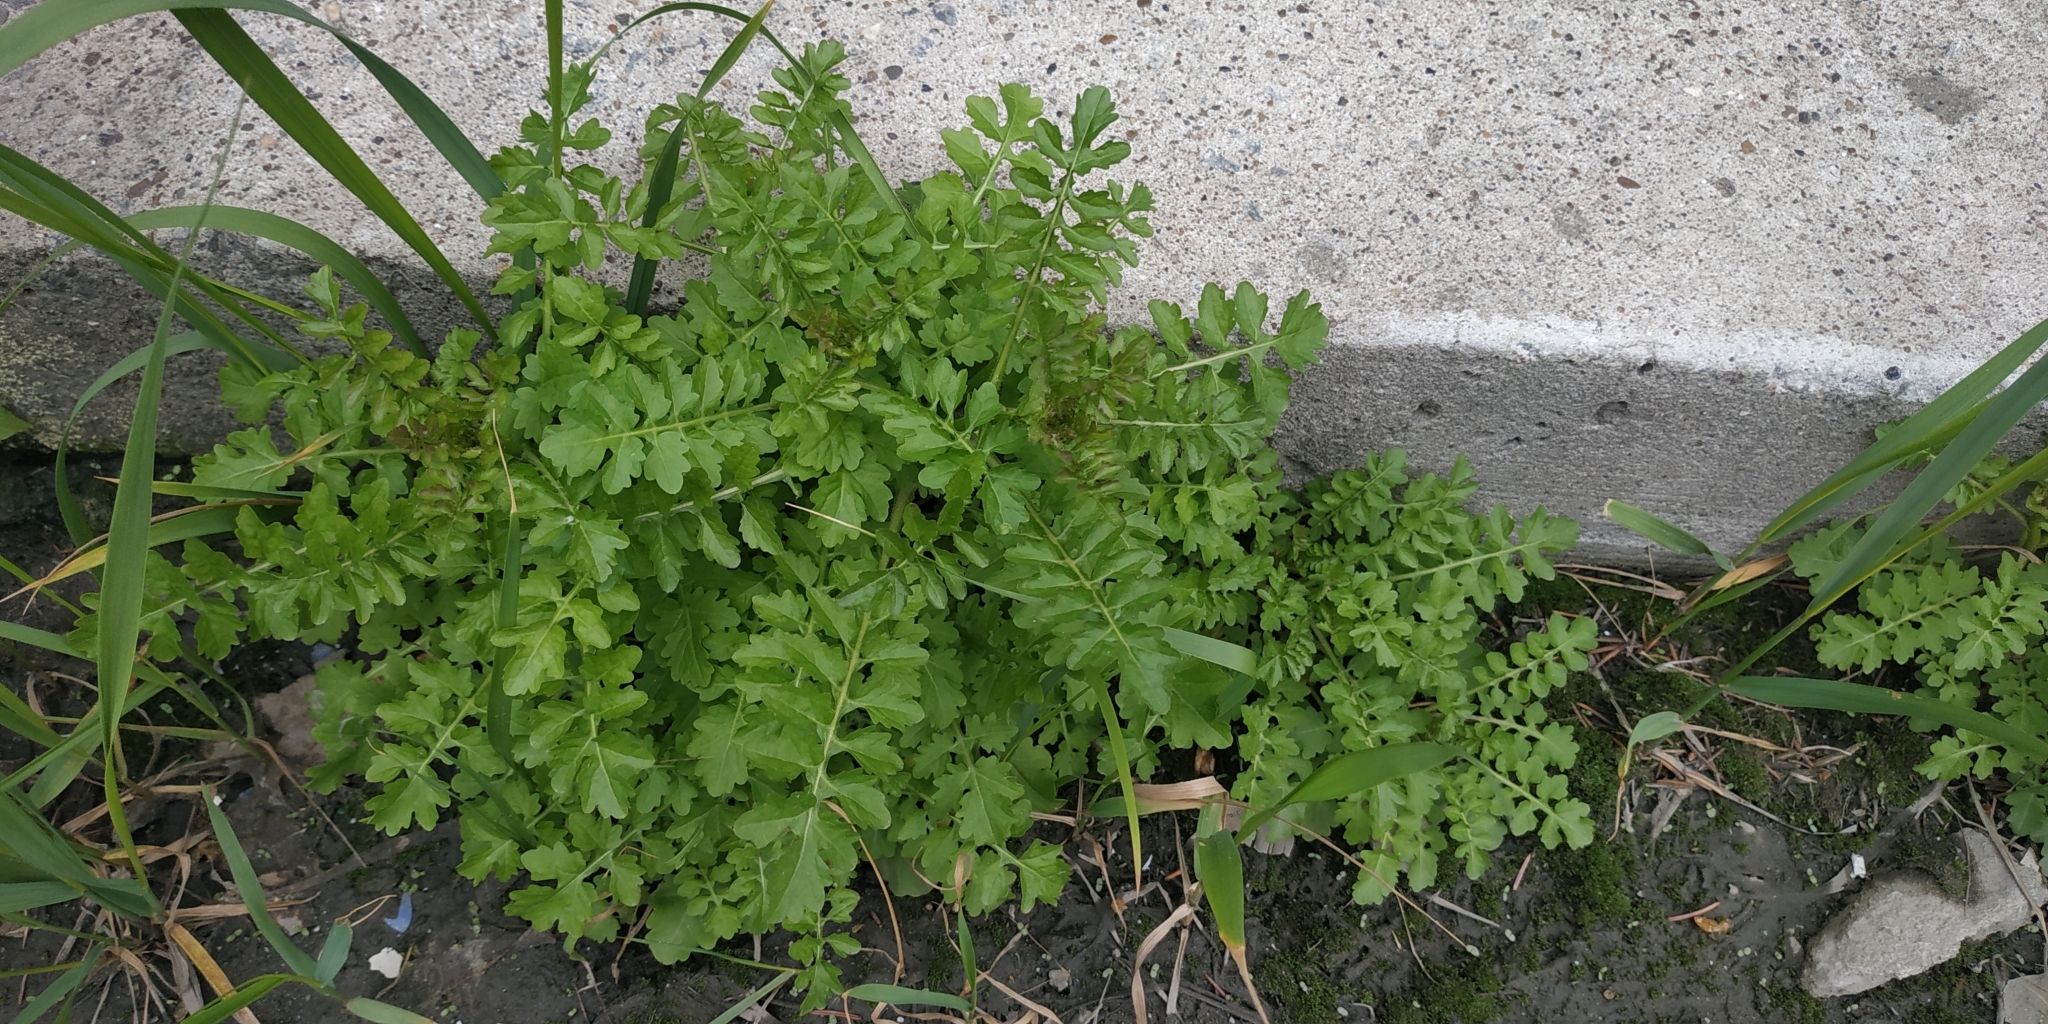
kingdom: Plantae
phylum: Tracheophyta
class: Magnoliopsida
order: Brassicales
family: Brassicaceae
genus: Rorippa
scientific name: Rorippa palustris
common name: Marsh yellow-cress
